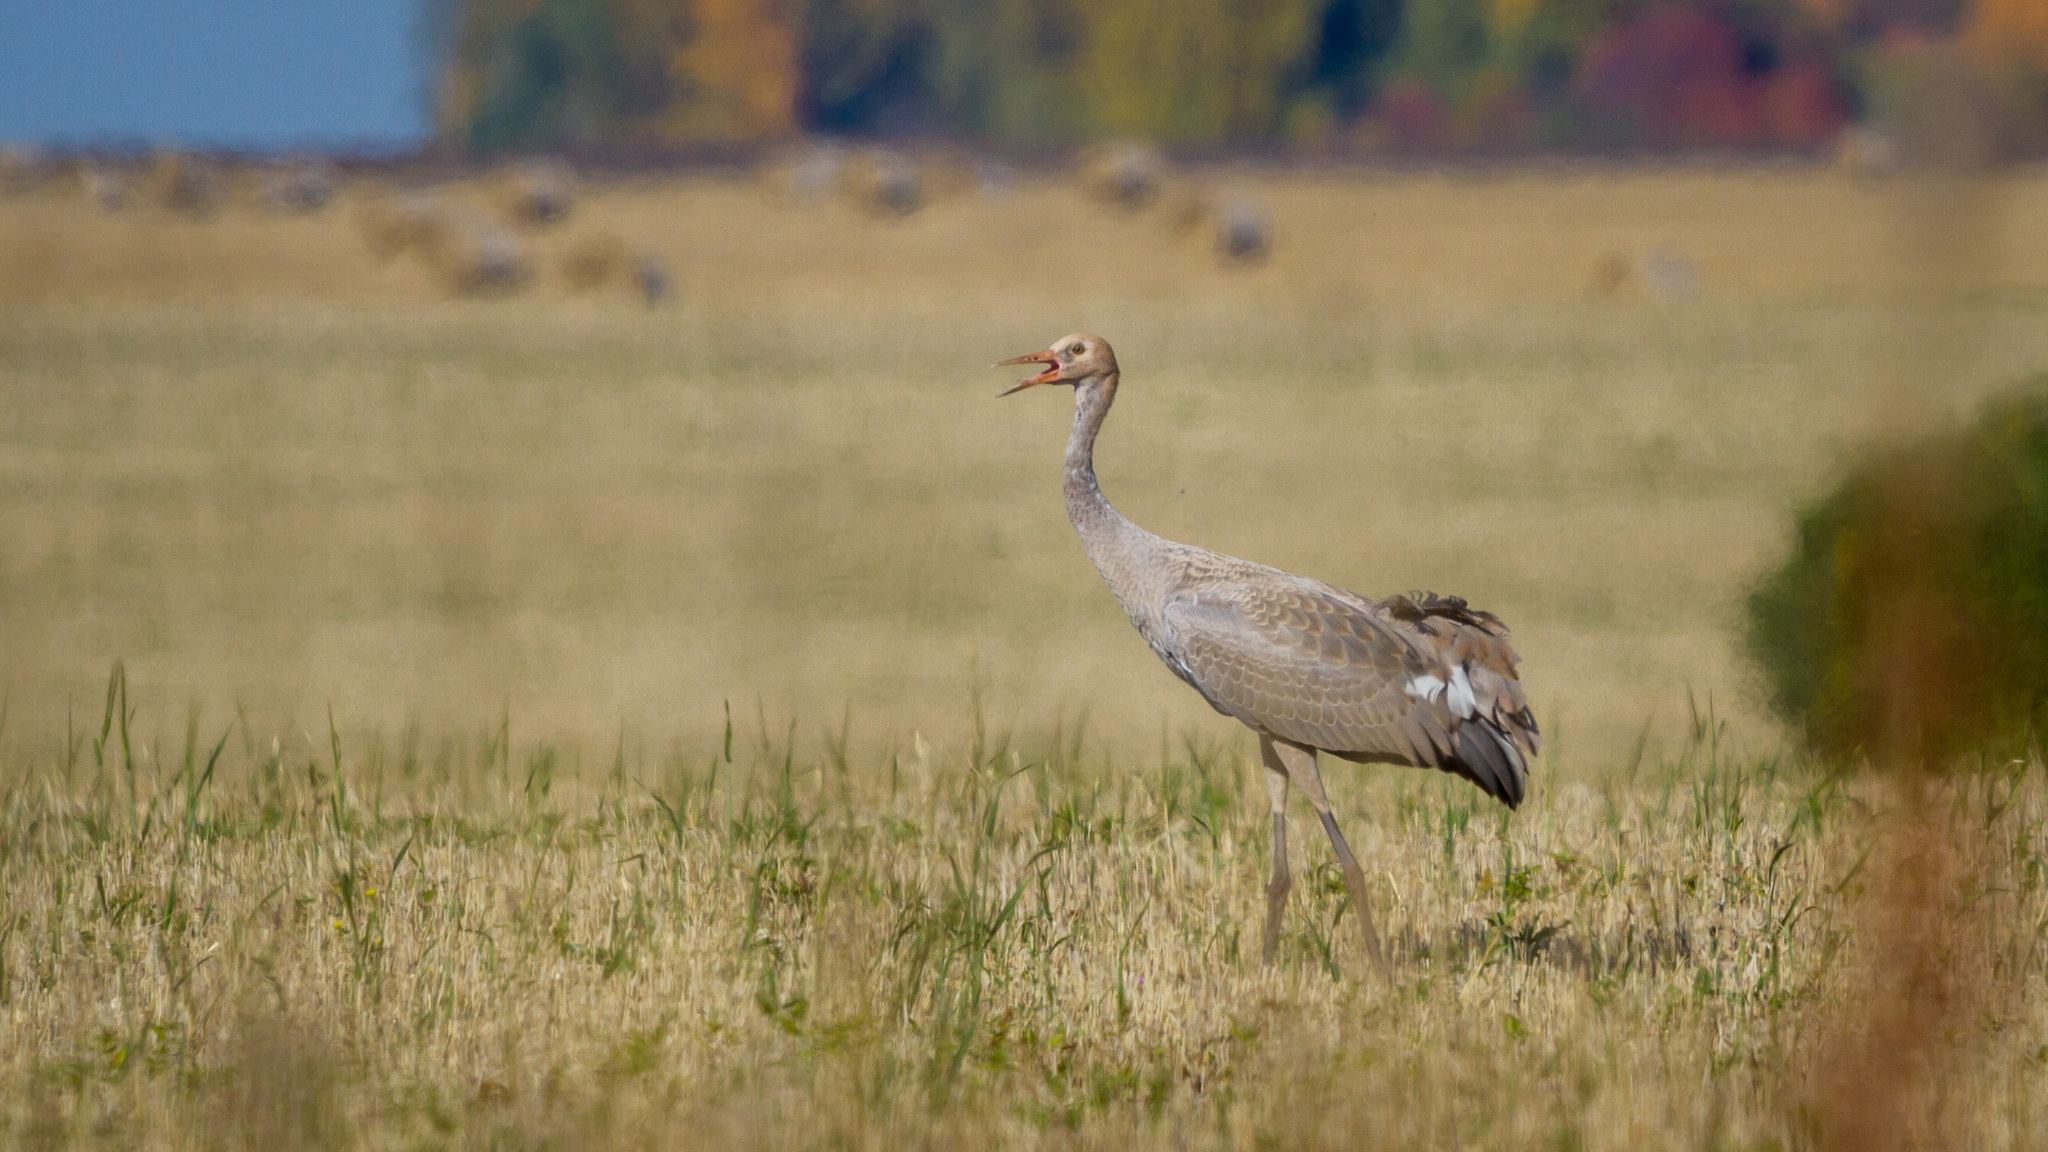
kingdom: Animalia
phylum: Chordata
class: Aves
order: Gruiformes
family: Gruidae
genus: Grus
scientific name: Grus grus
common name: Common crane
